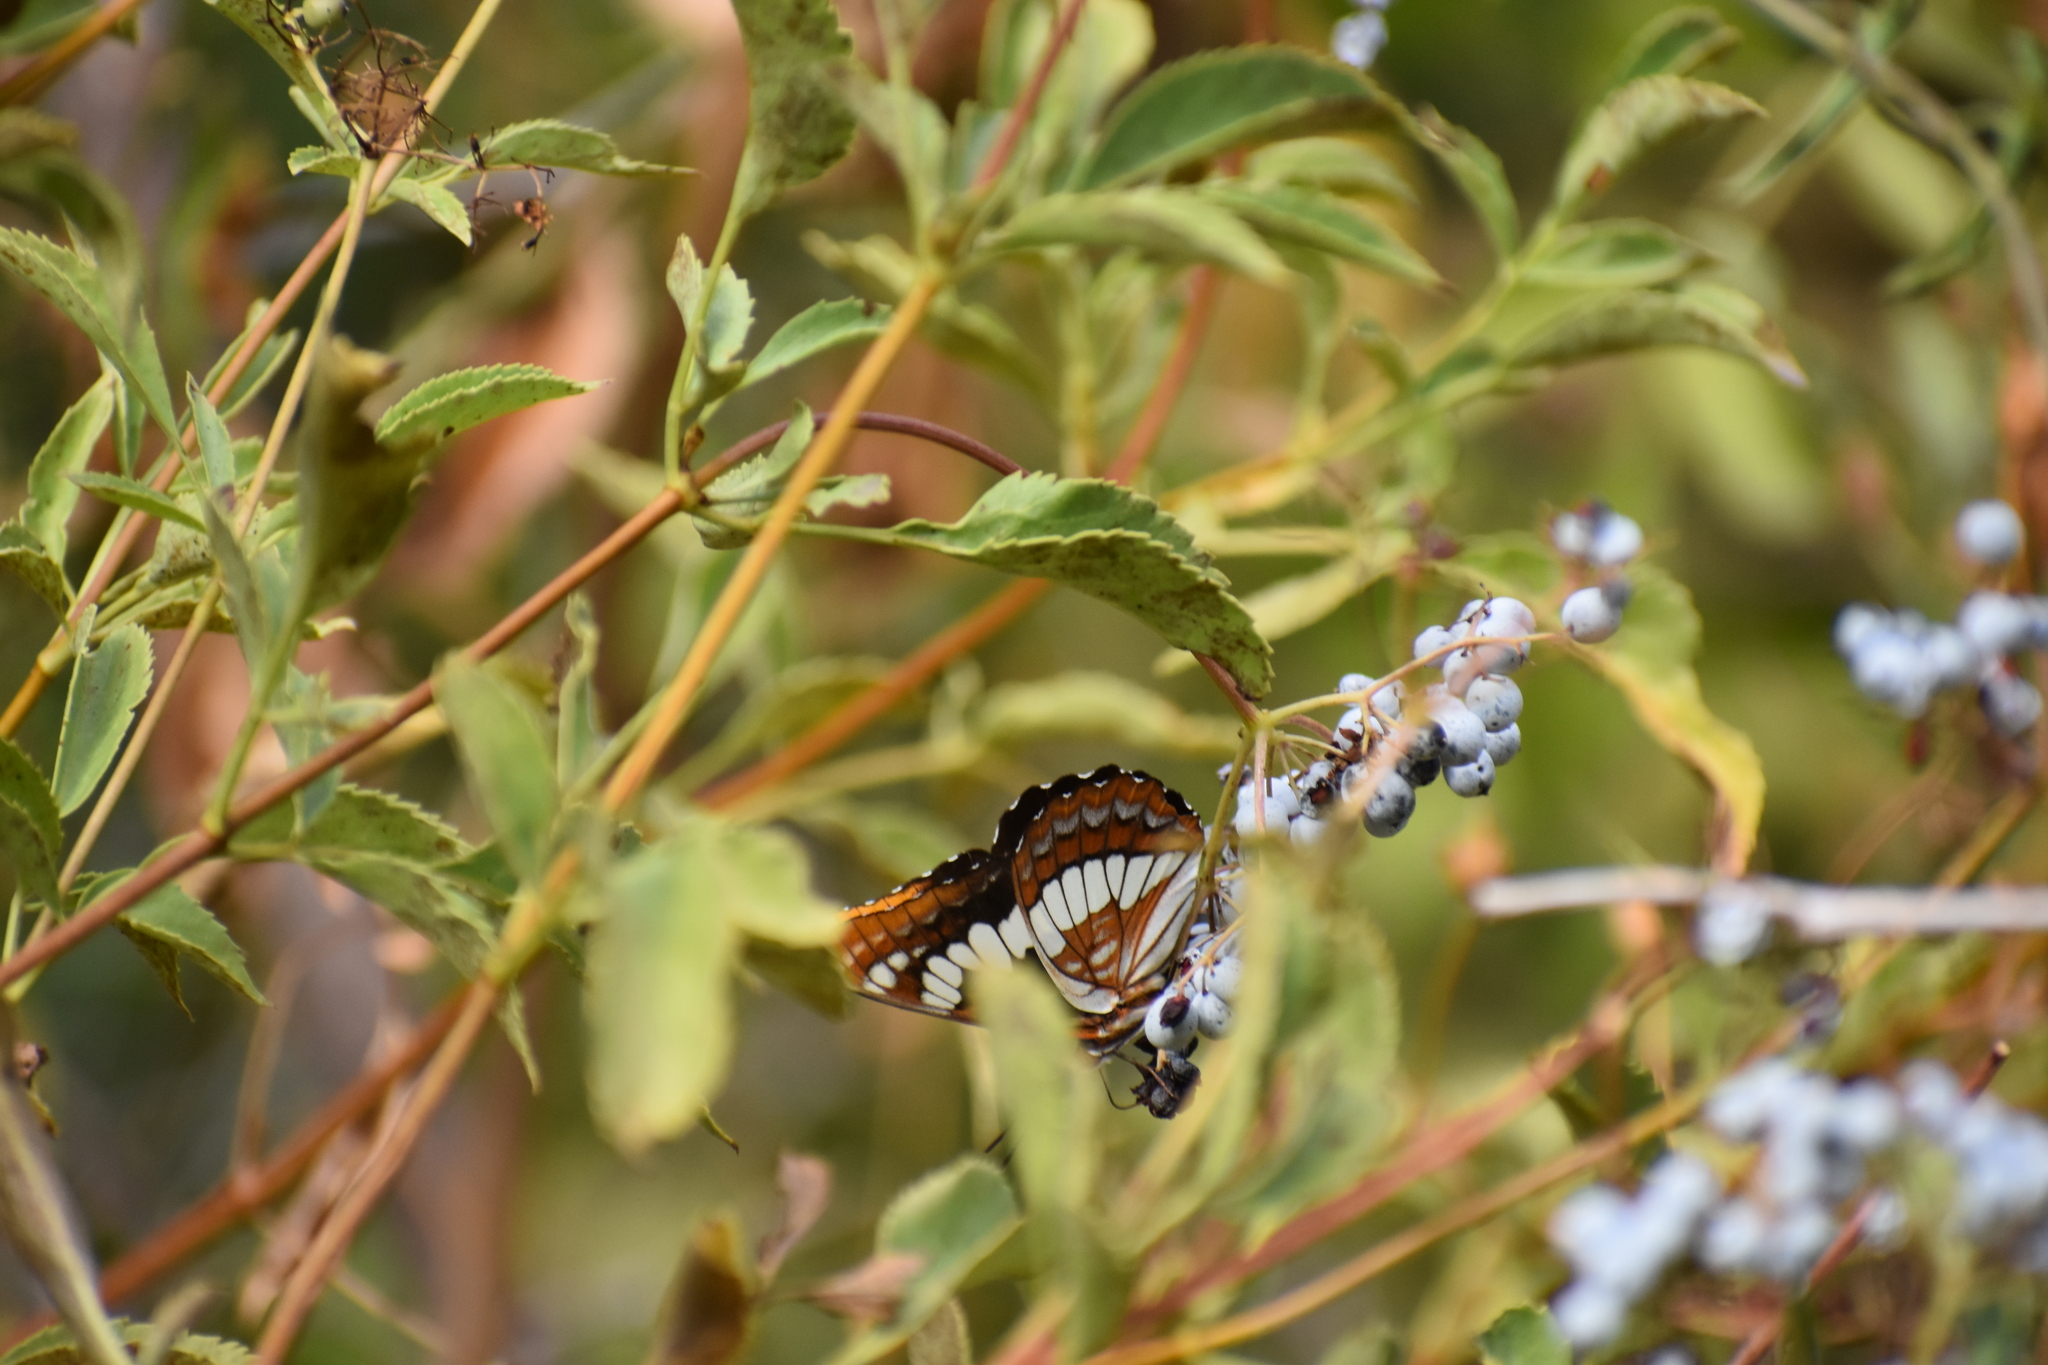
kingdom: Animalia
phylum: Arthropoda
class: Insecta
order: Lepidoptera
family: Nymphalidae
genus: Limenitis
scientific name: Limenitis lorquini
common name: Lorquin's admiral
